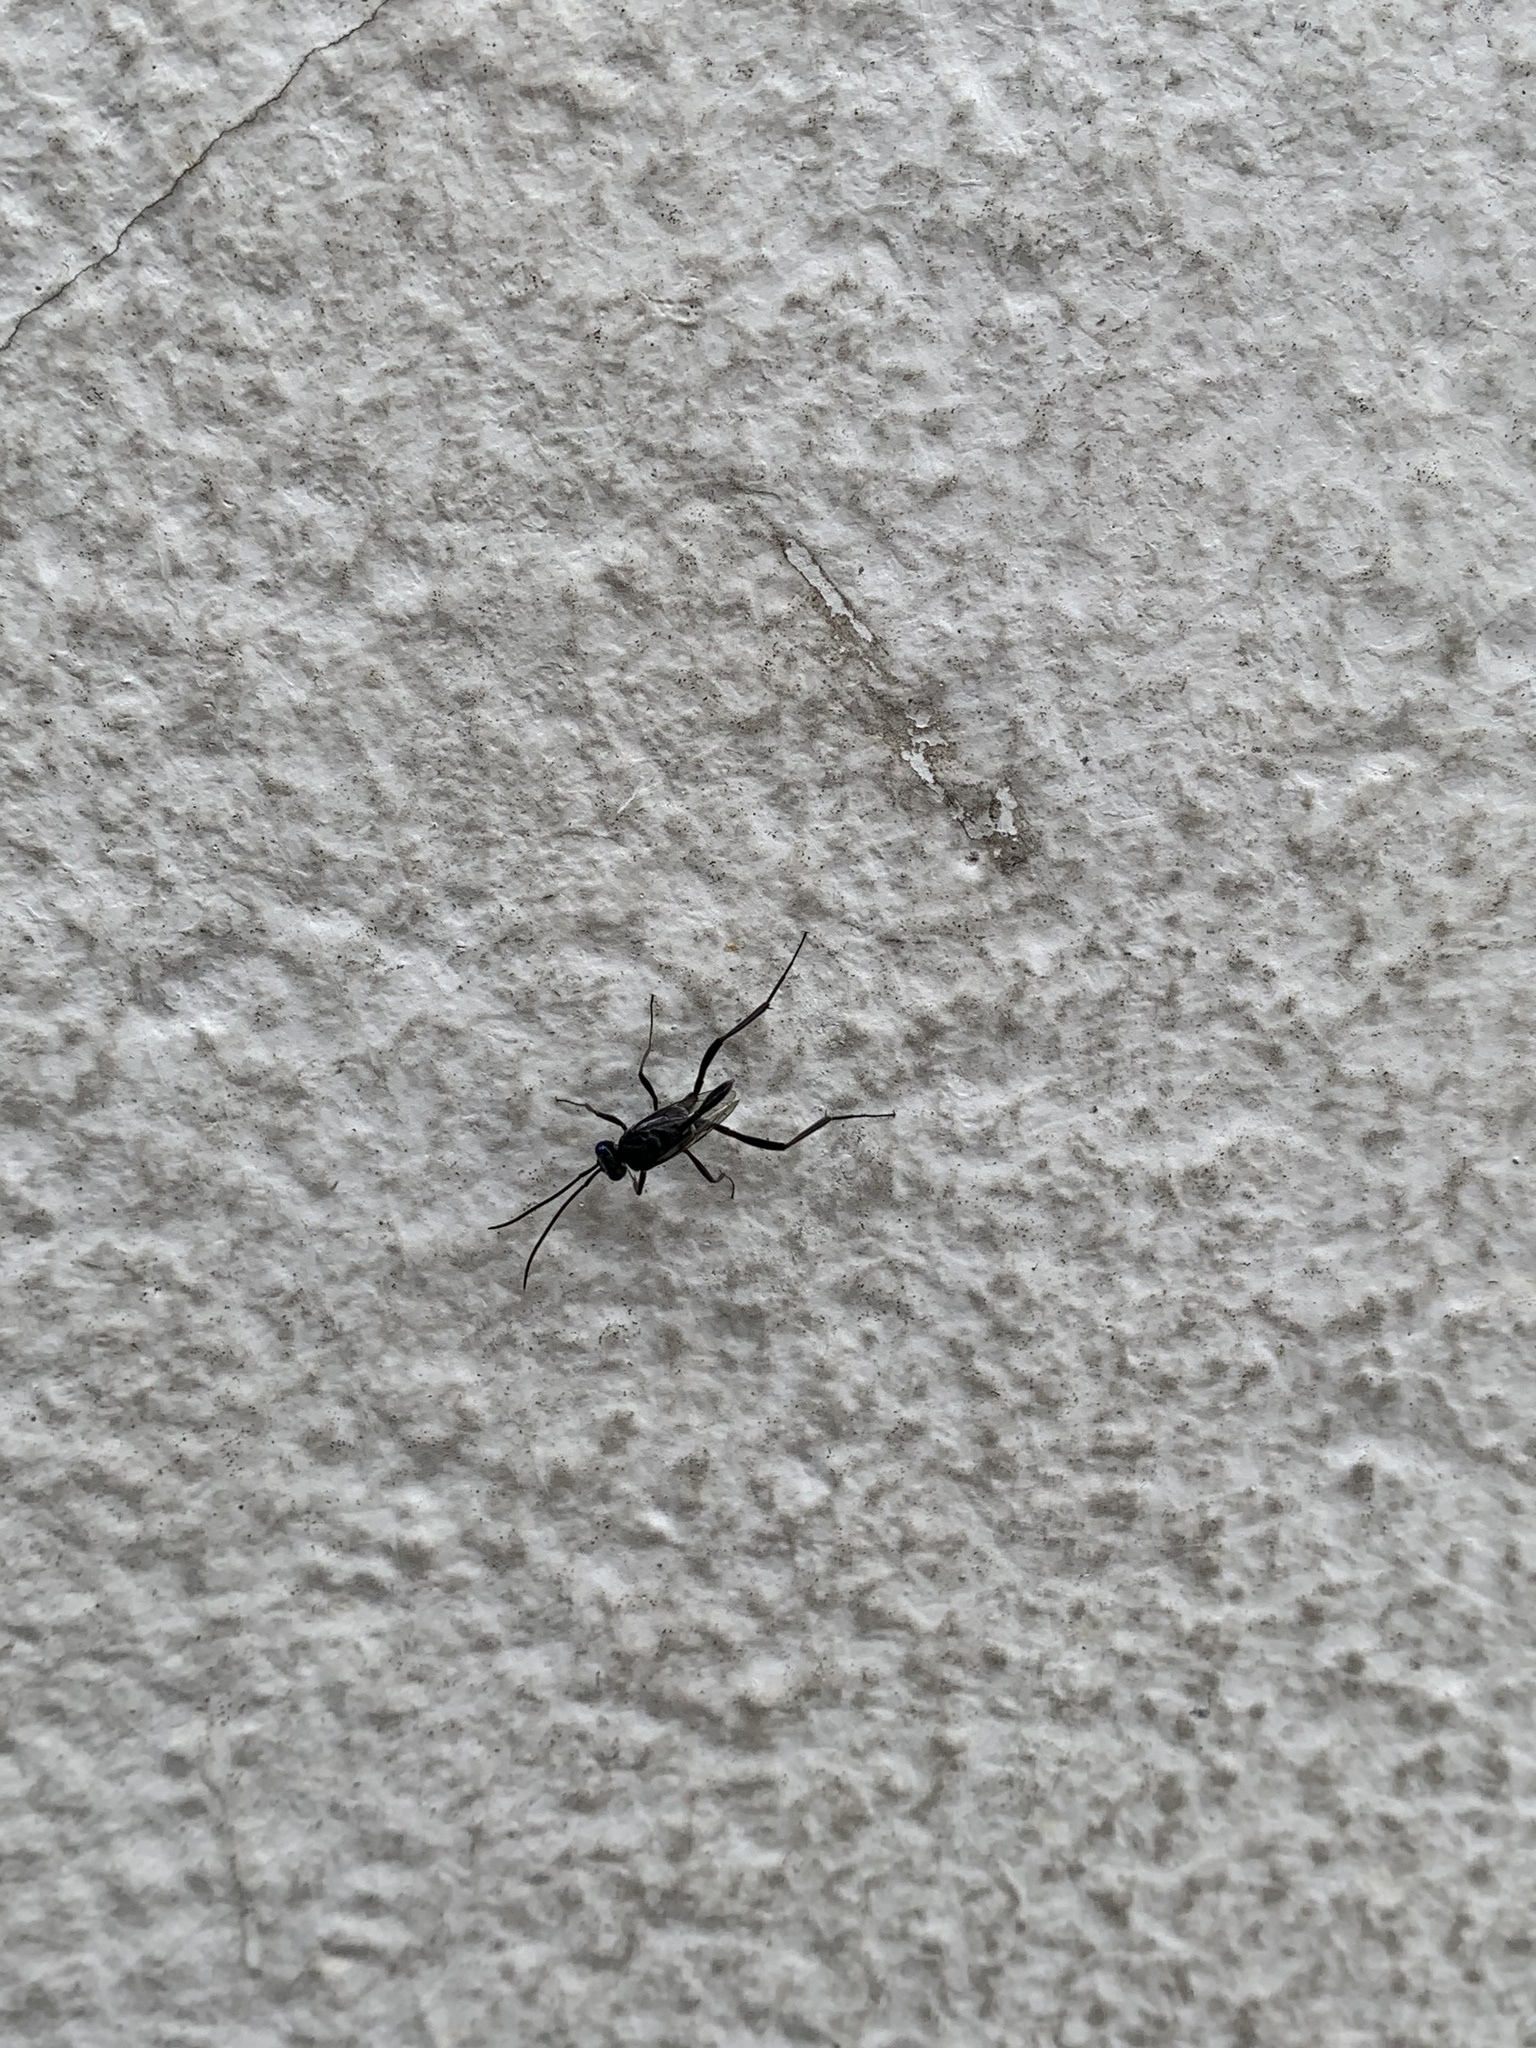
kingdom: Animalia
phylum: Arthropoda
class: Insecta
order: Hymenoptera
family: Evaniidae
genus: Evania
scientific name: Evania appendigaster
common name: Ensign wasp
